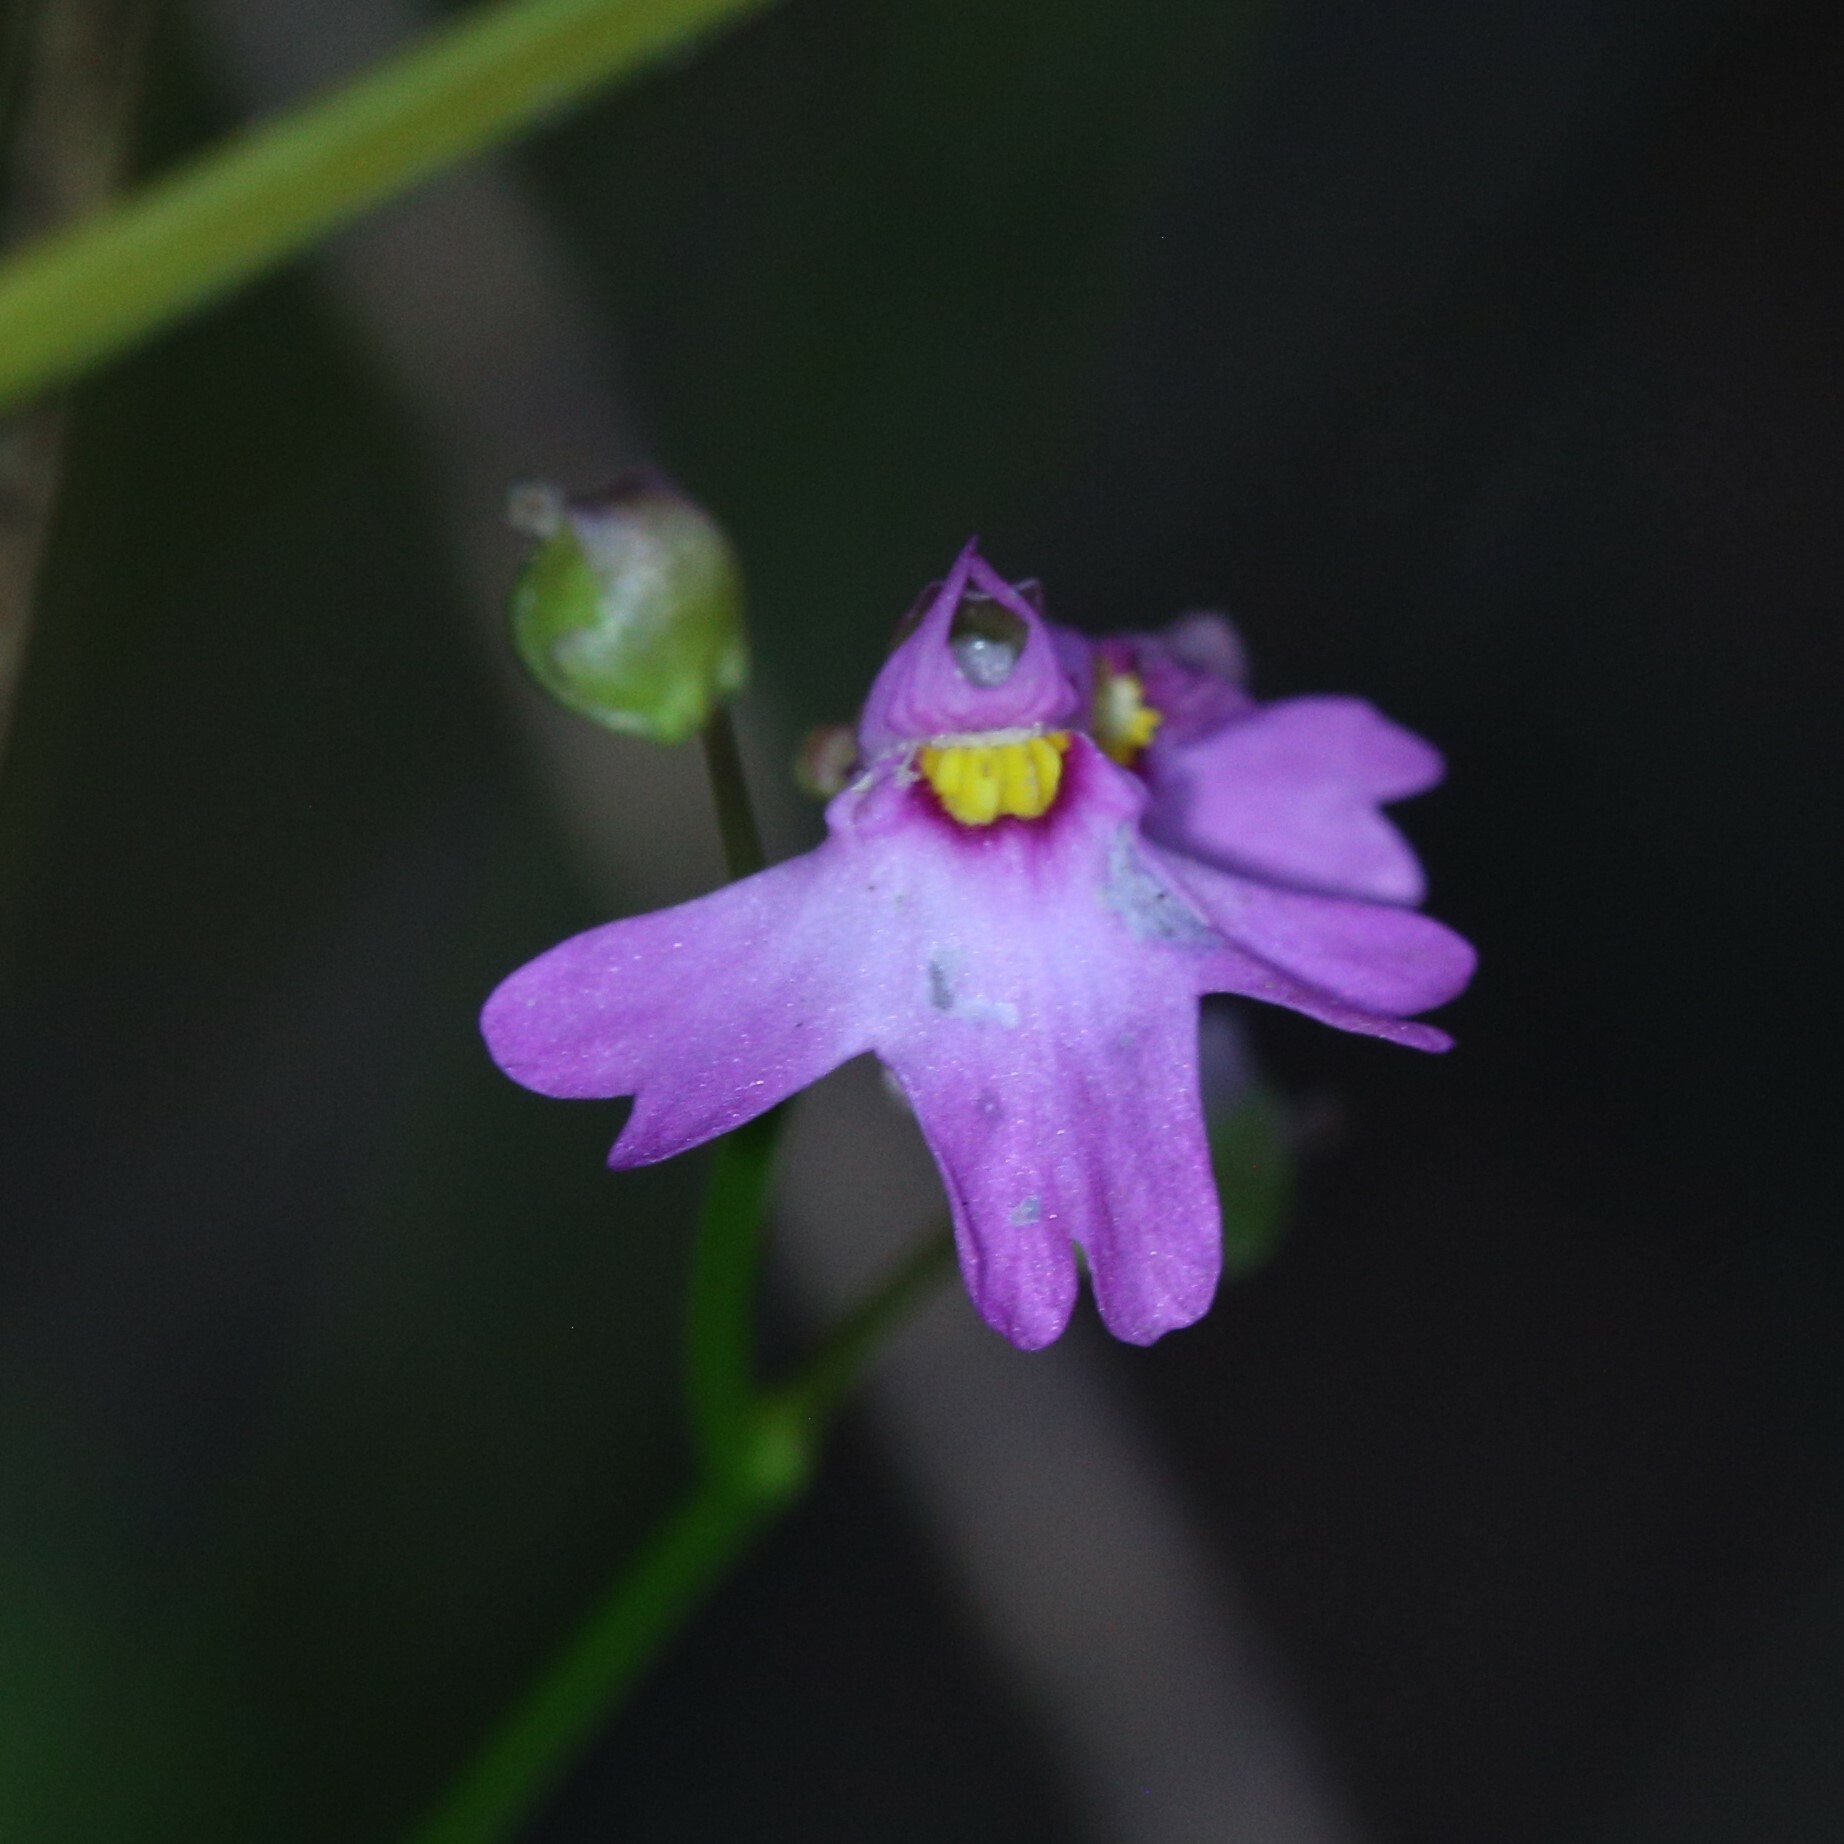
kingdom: Plantae
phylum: Tracheophyta
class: Magnoliopsida
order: Lamiales
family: Lentibulariaceae
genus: Utricularia
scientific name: Utricularia multifida
